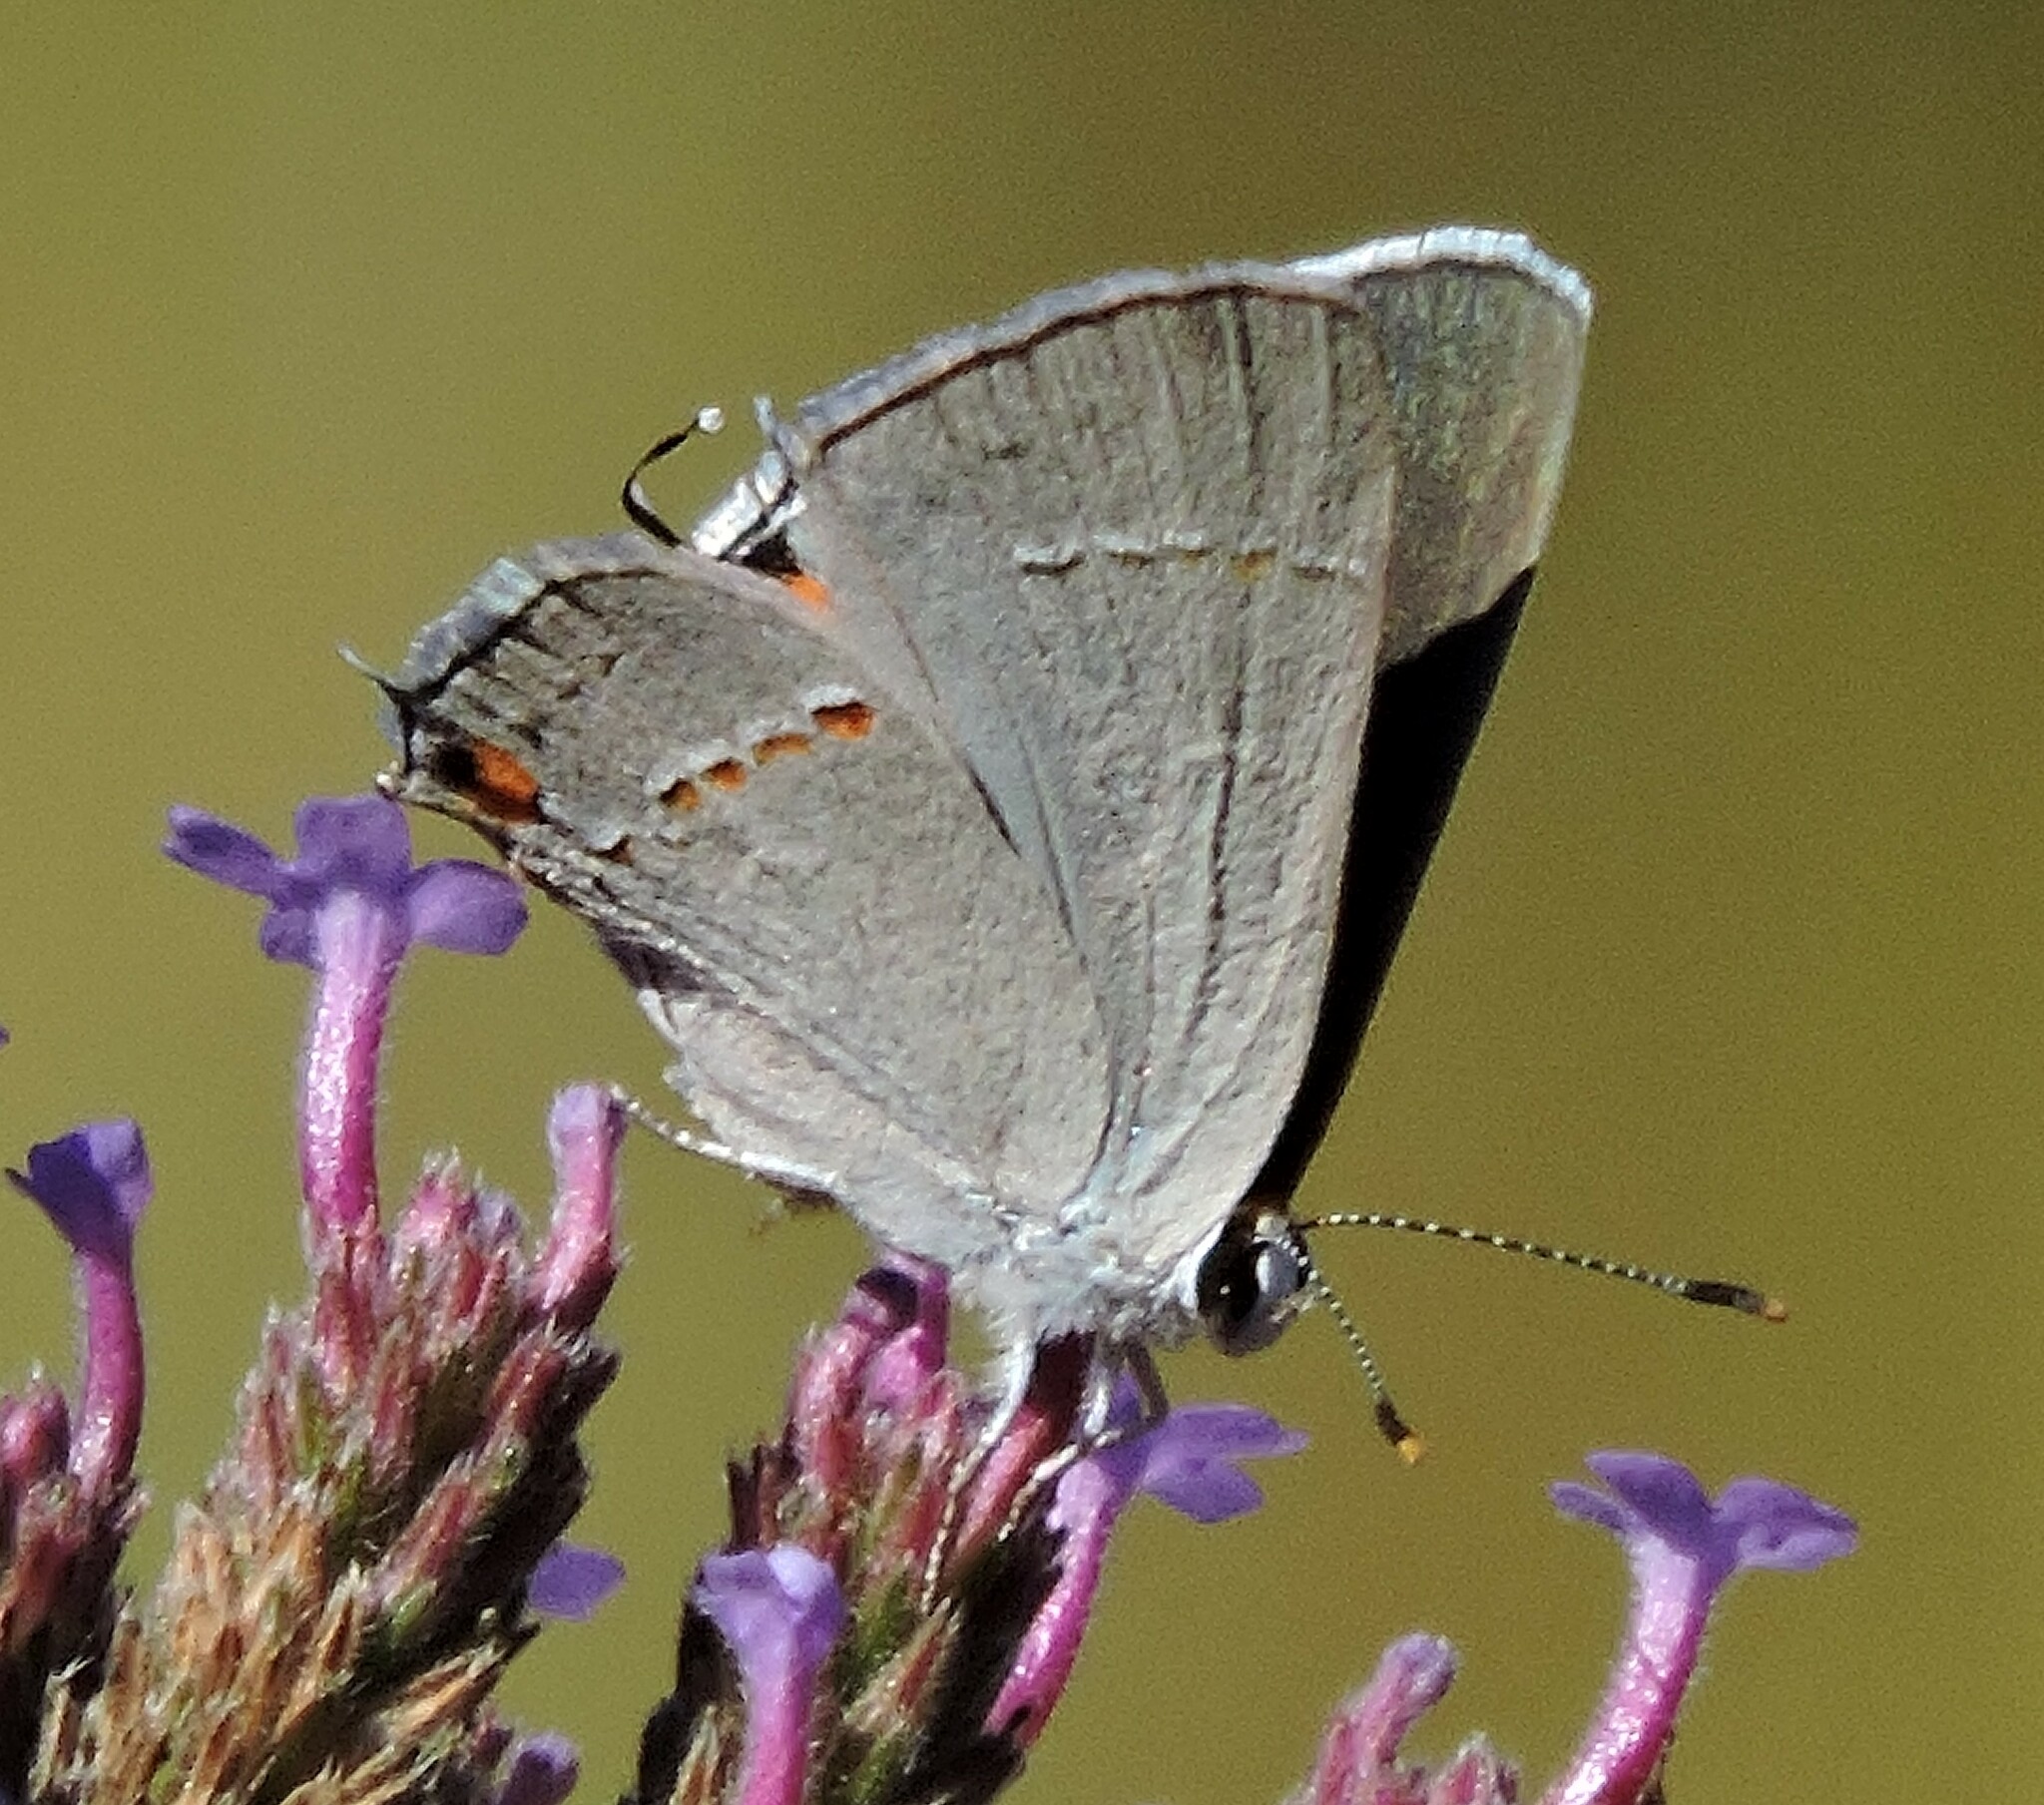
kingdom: Animalia
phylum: Arthropoda
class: Insecta
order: Lepidoptera
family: Lycaenidae
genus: Strymon
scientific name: Strymon melinus
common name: Gray hairstreak
